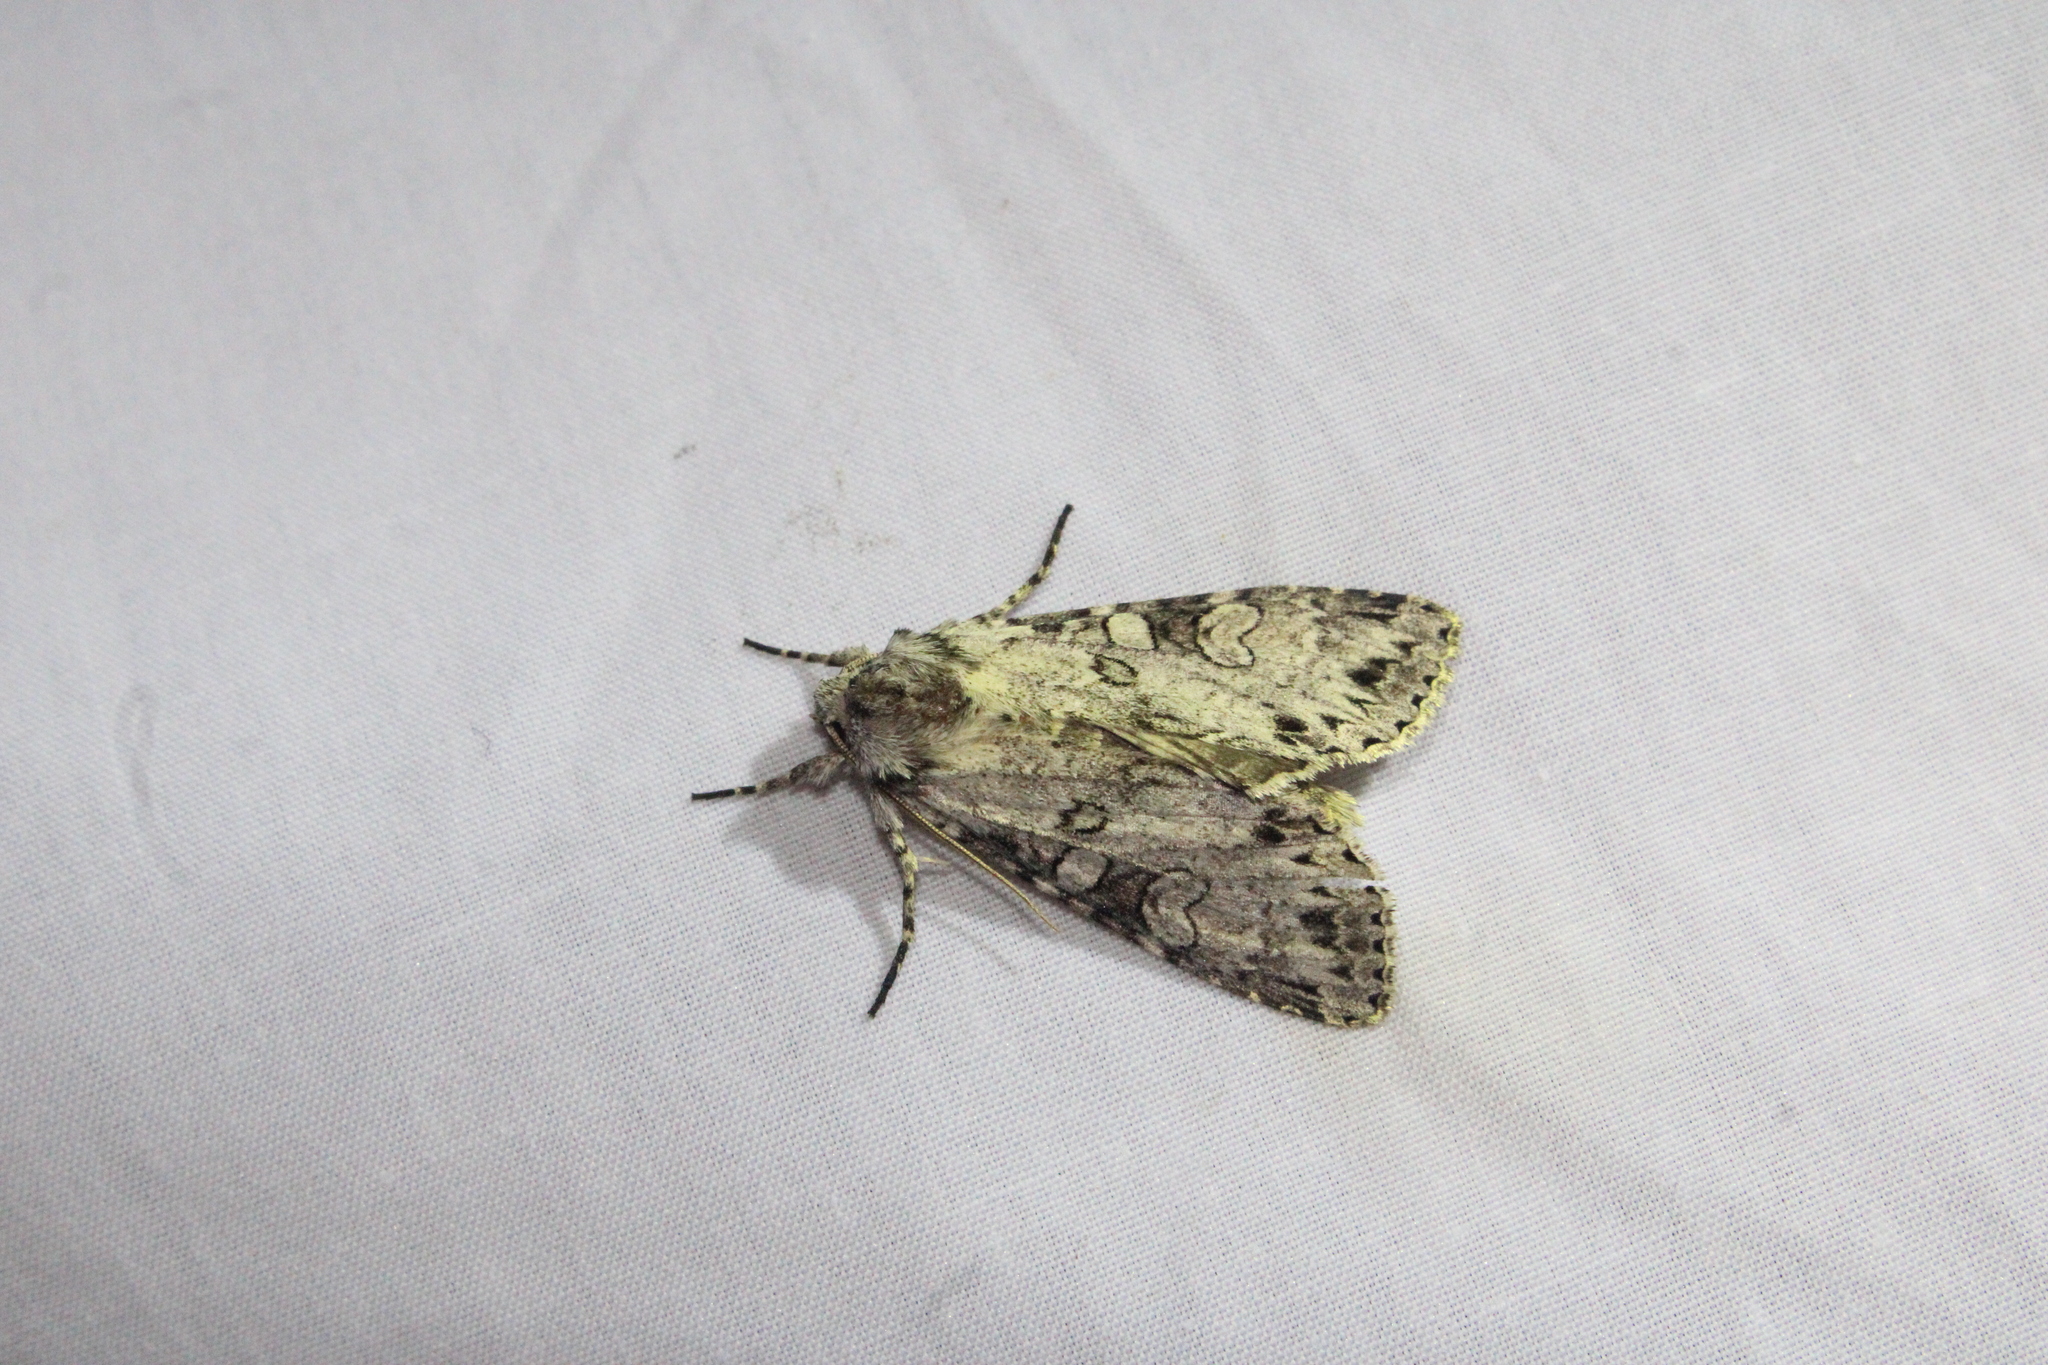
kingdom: Animalia
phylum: Arthropoda
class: Insecta
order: Lepidoptera
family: Noctuidae
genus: Polia
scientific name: Polia nimbosa
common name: Stormy arches
